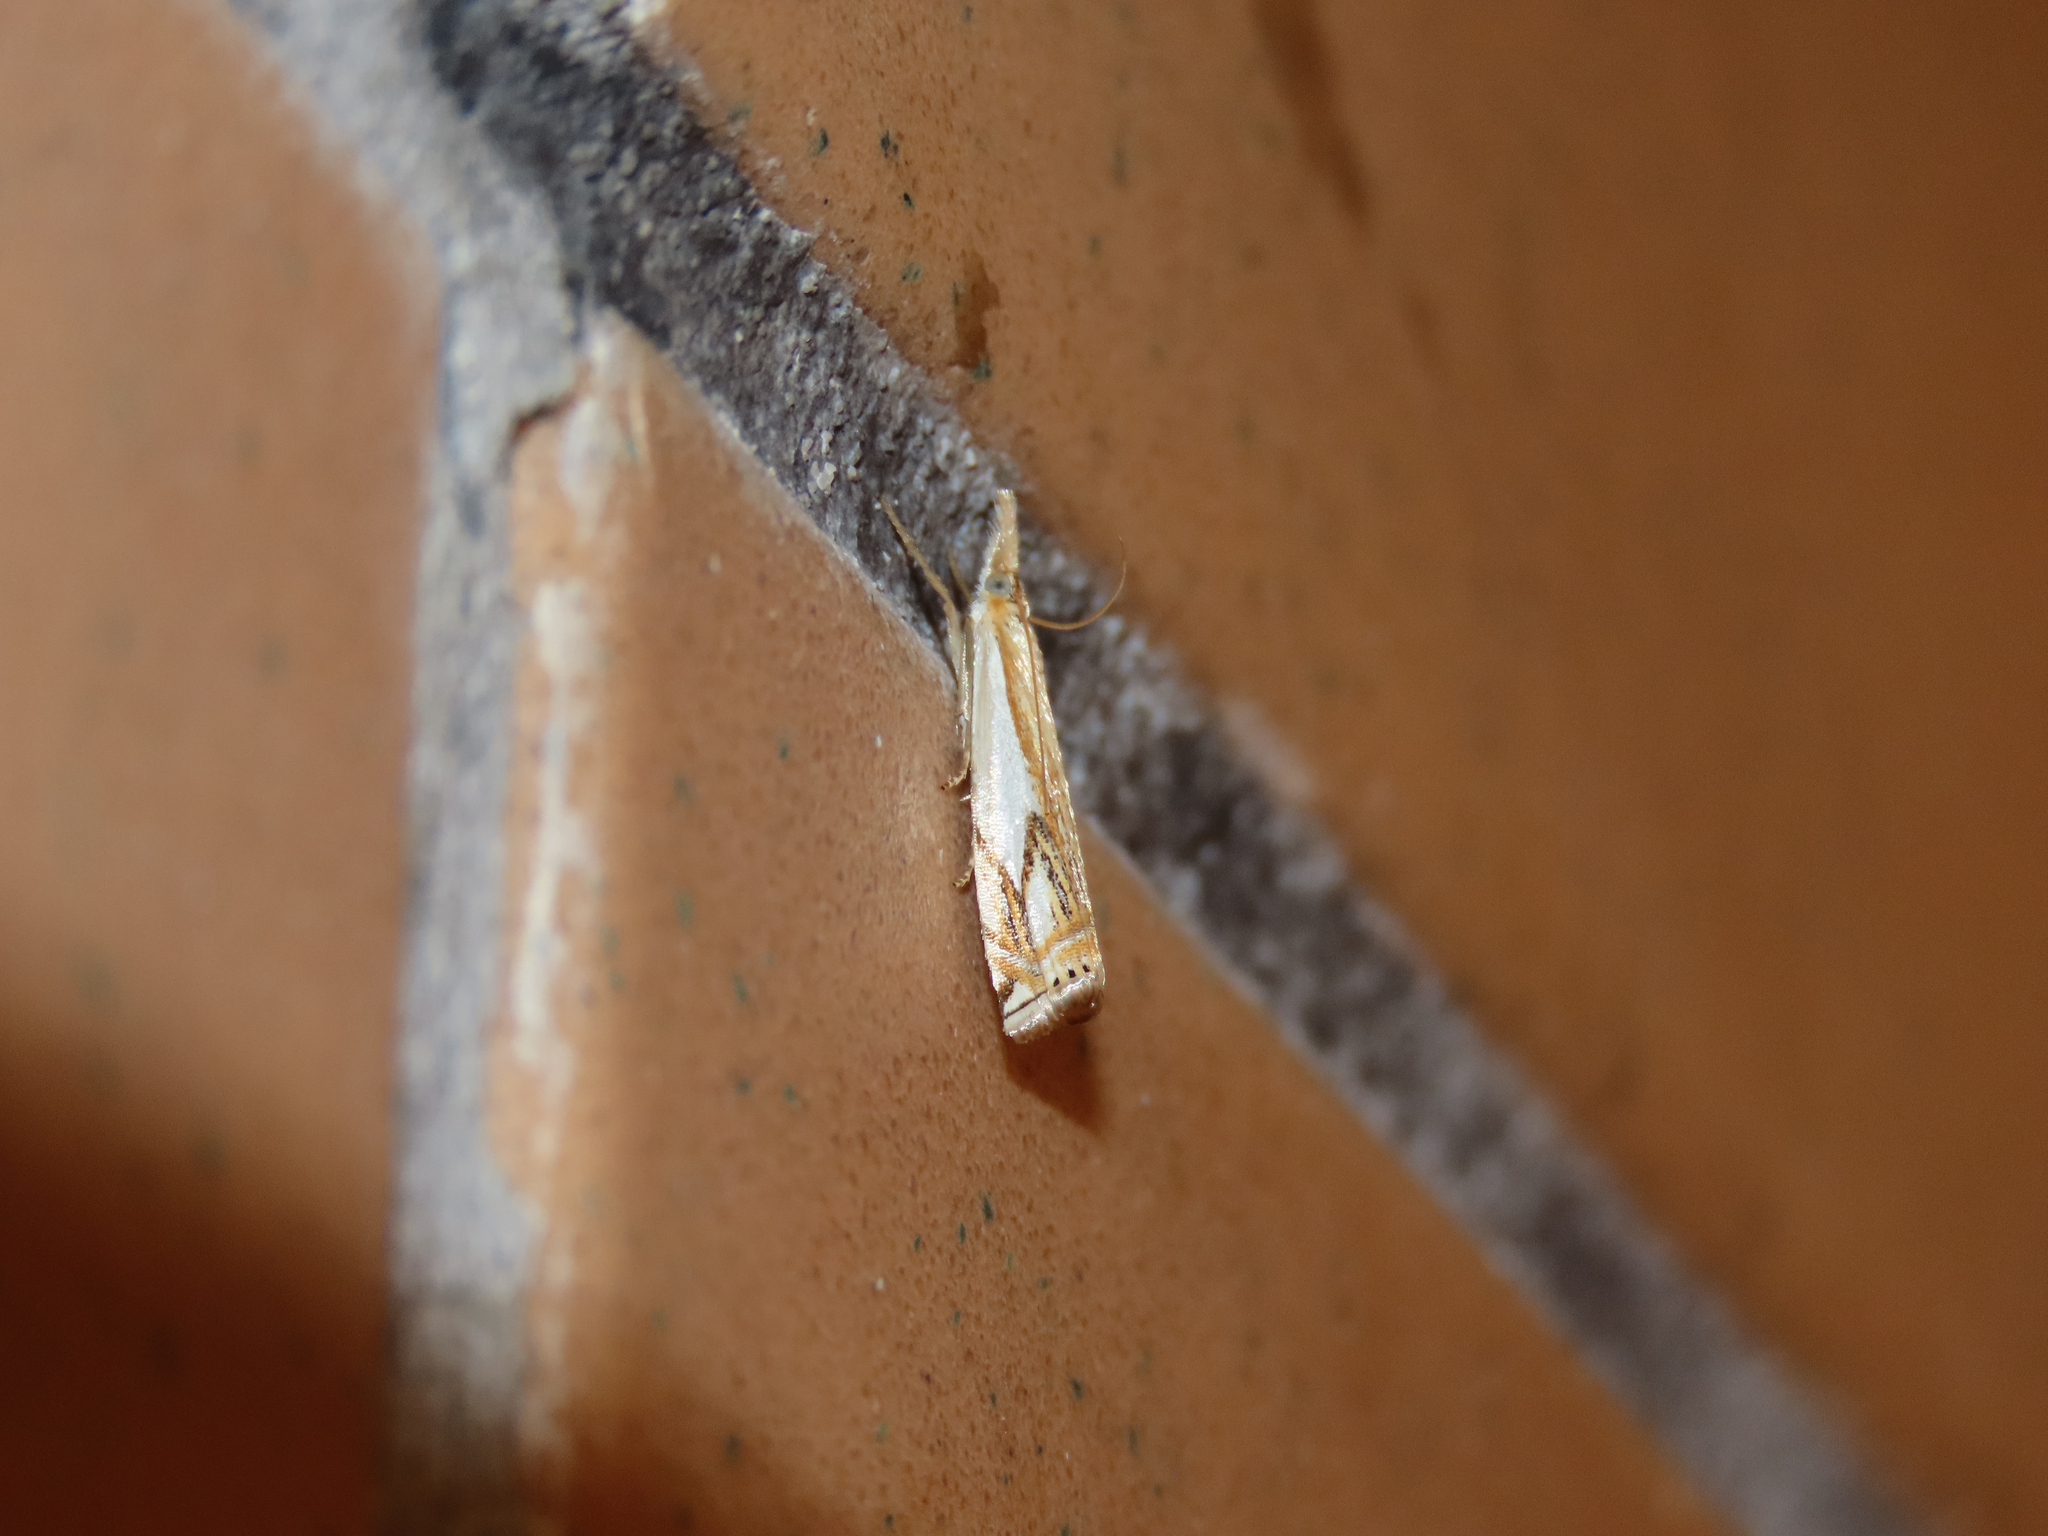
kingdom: Animalia
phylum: Arthropoda
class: Insecta
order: Lepidoptera
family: Crambidae
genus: Crambus
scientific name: Crambus agitatellus
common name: Double-banded grass-veneer
